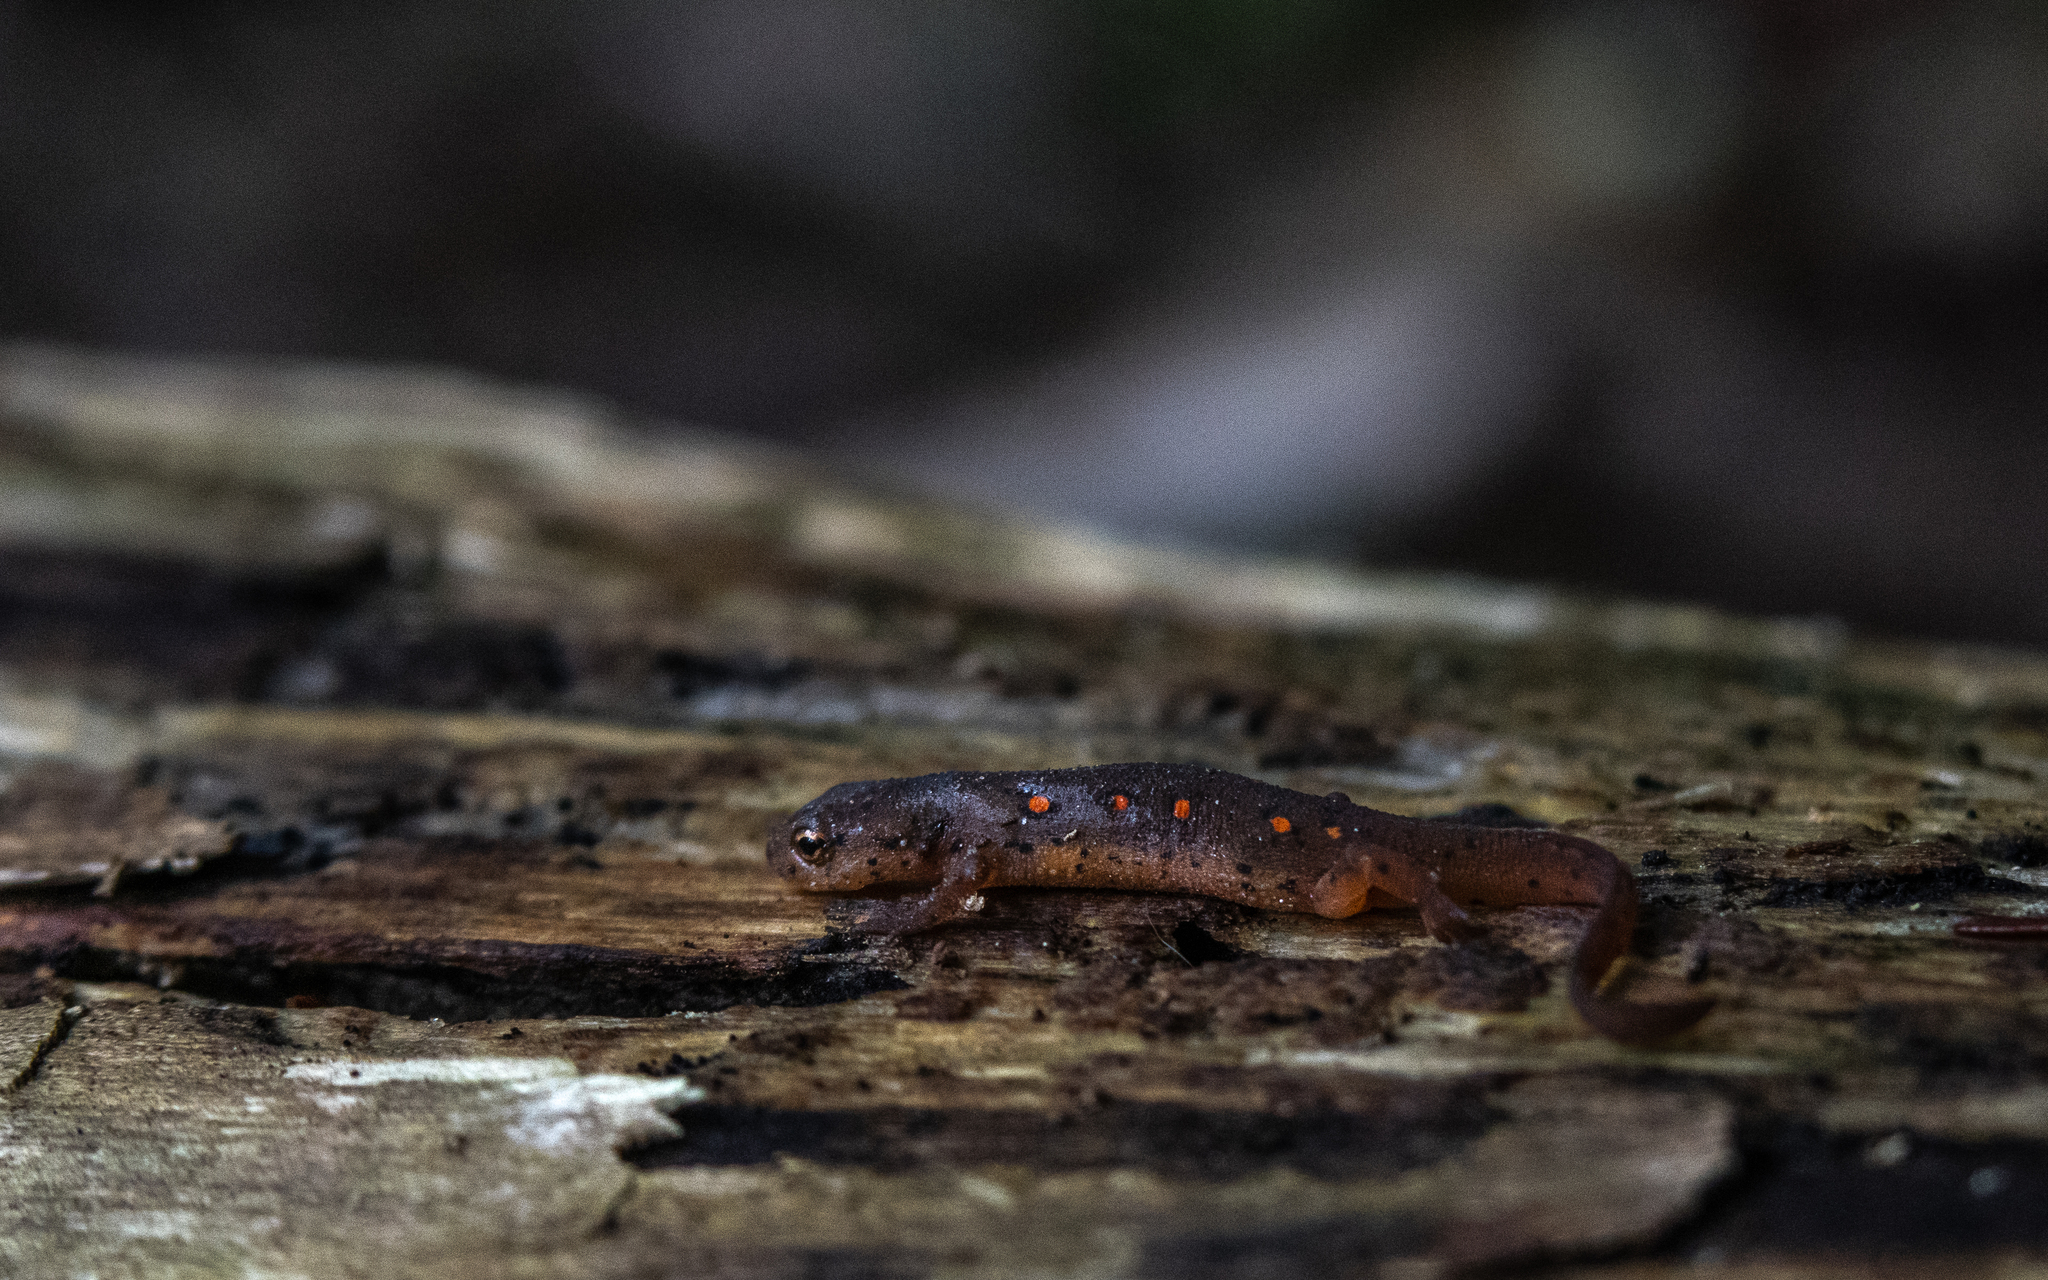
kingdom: Animalia
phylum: Chordata
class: Amphibia
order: Caudata
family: Salamandridae
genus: Notophthalmus
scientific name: Notophthalmus viridescens
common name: Eastern newt
